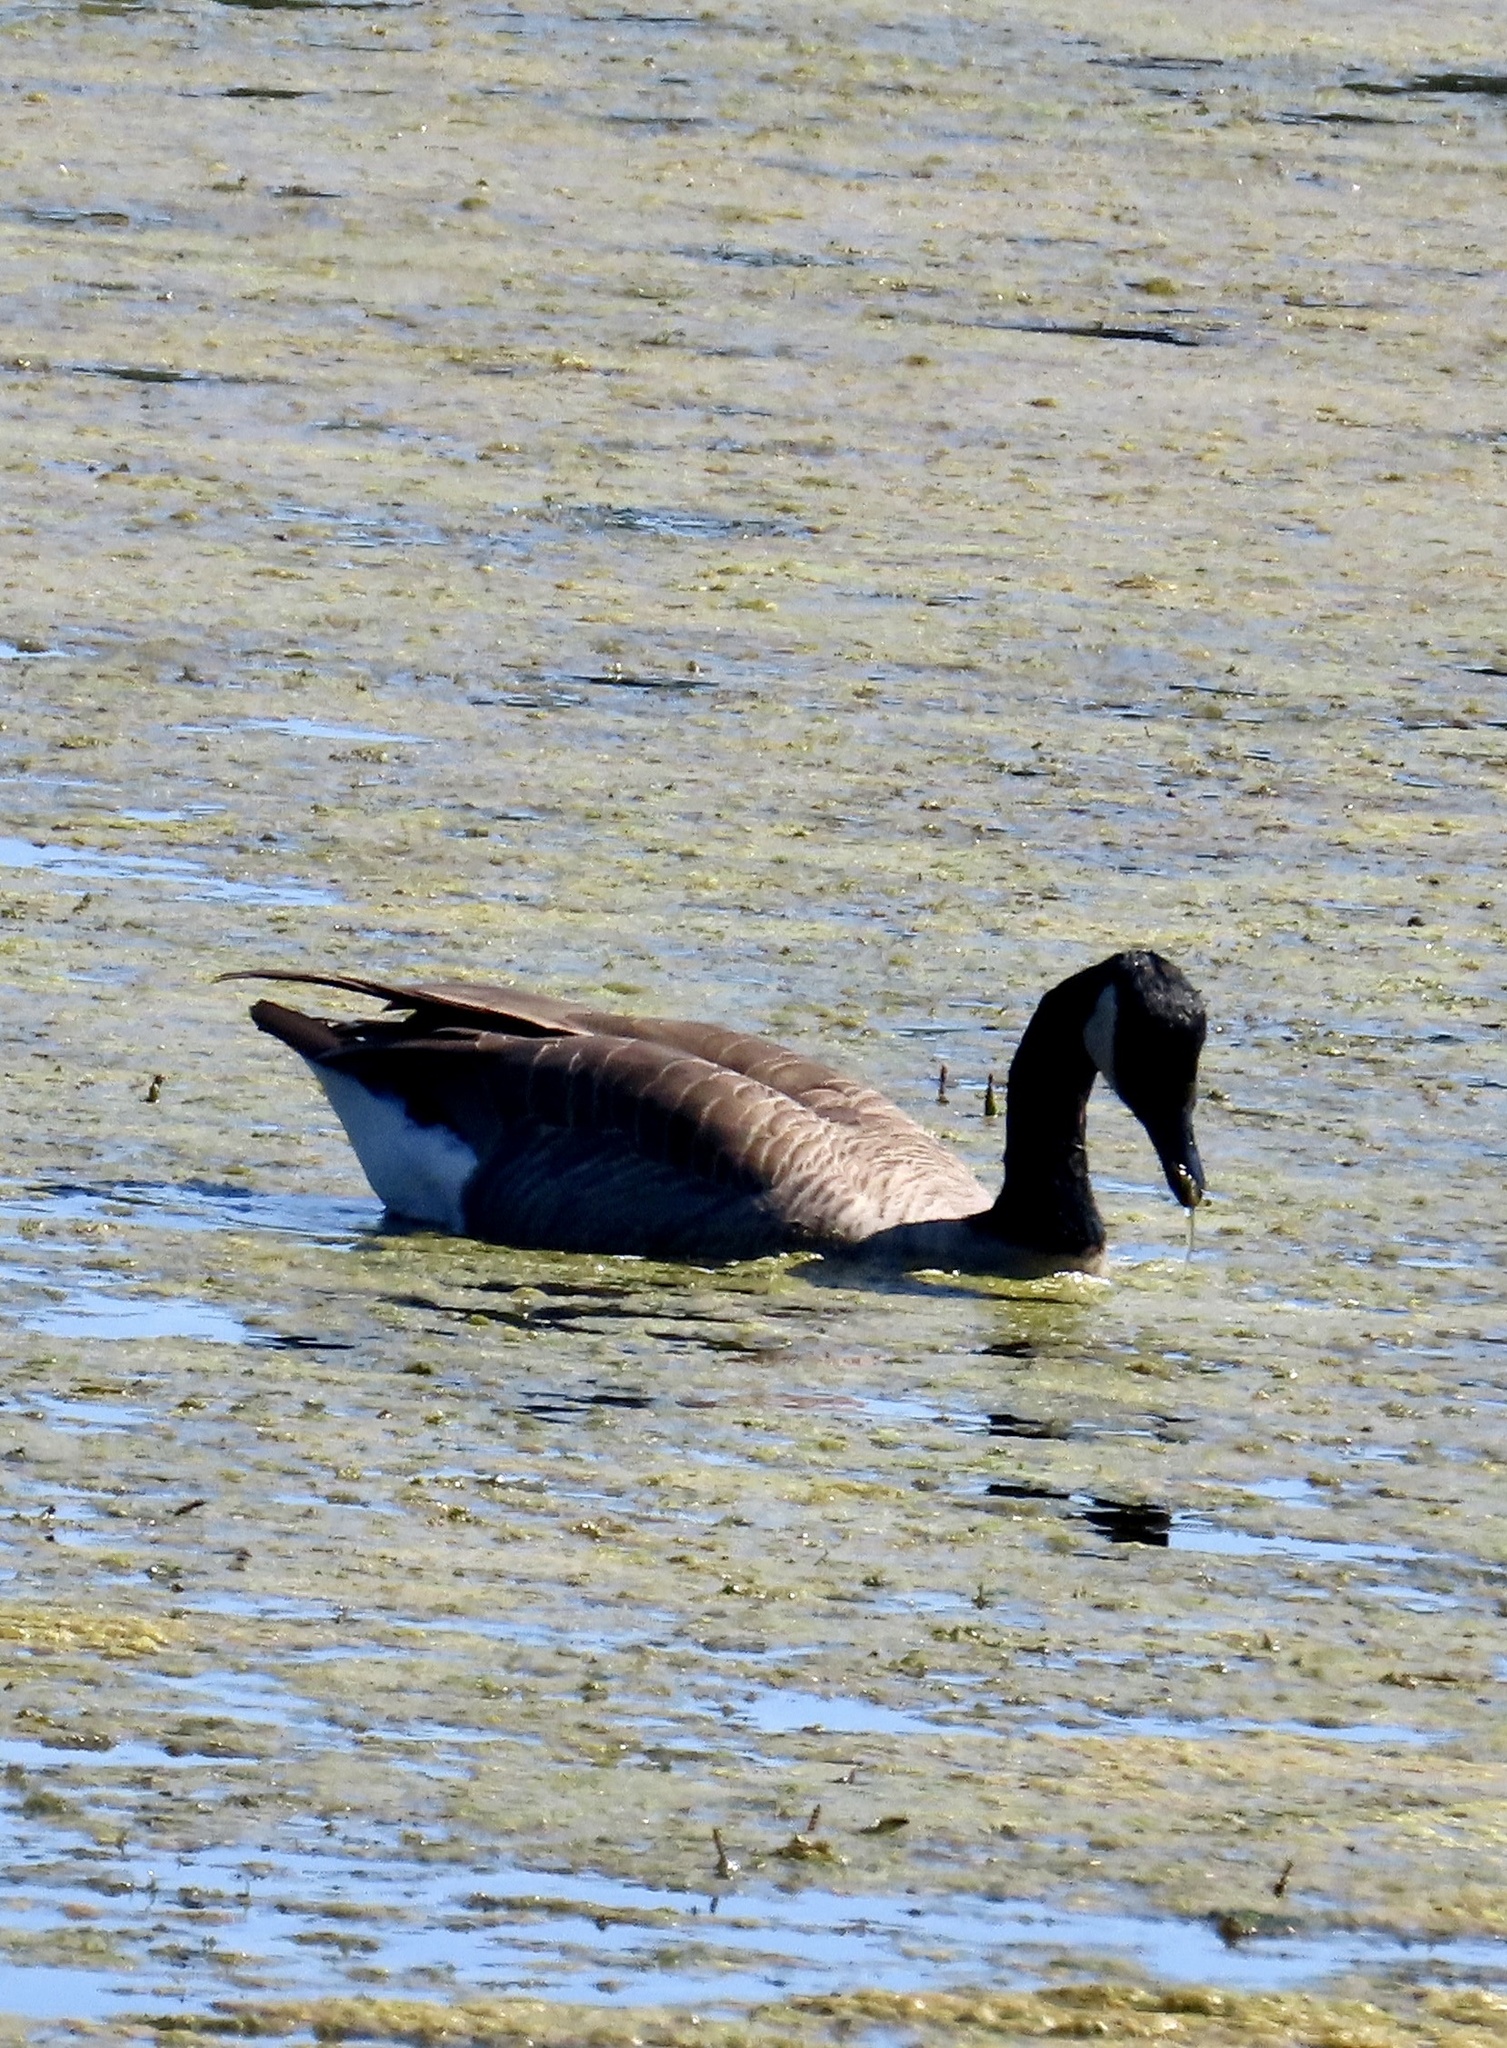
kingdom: Animalia
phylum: Chordata
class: Aves
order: Anseriformes
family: Anatidae
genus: Branta
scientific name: Branta canadensis
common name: Canada goose
